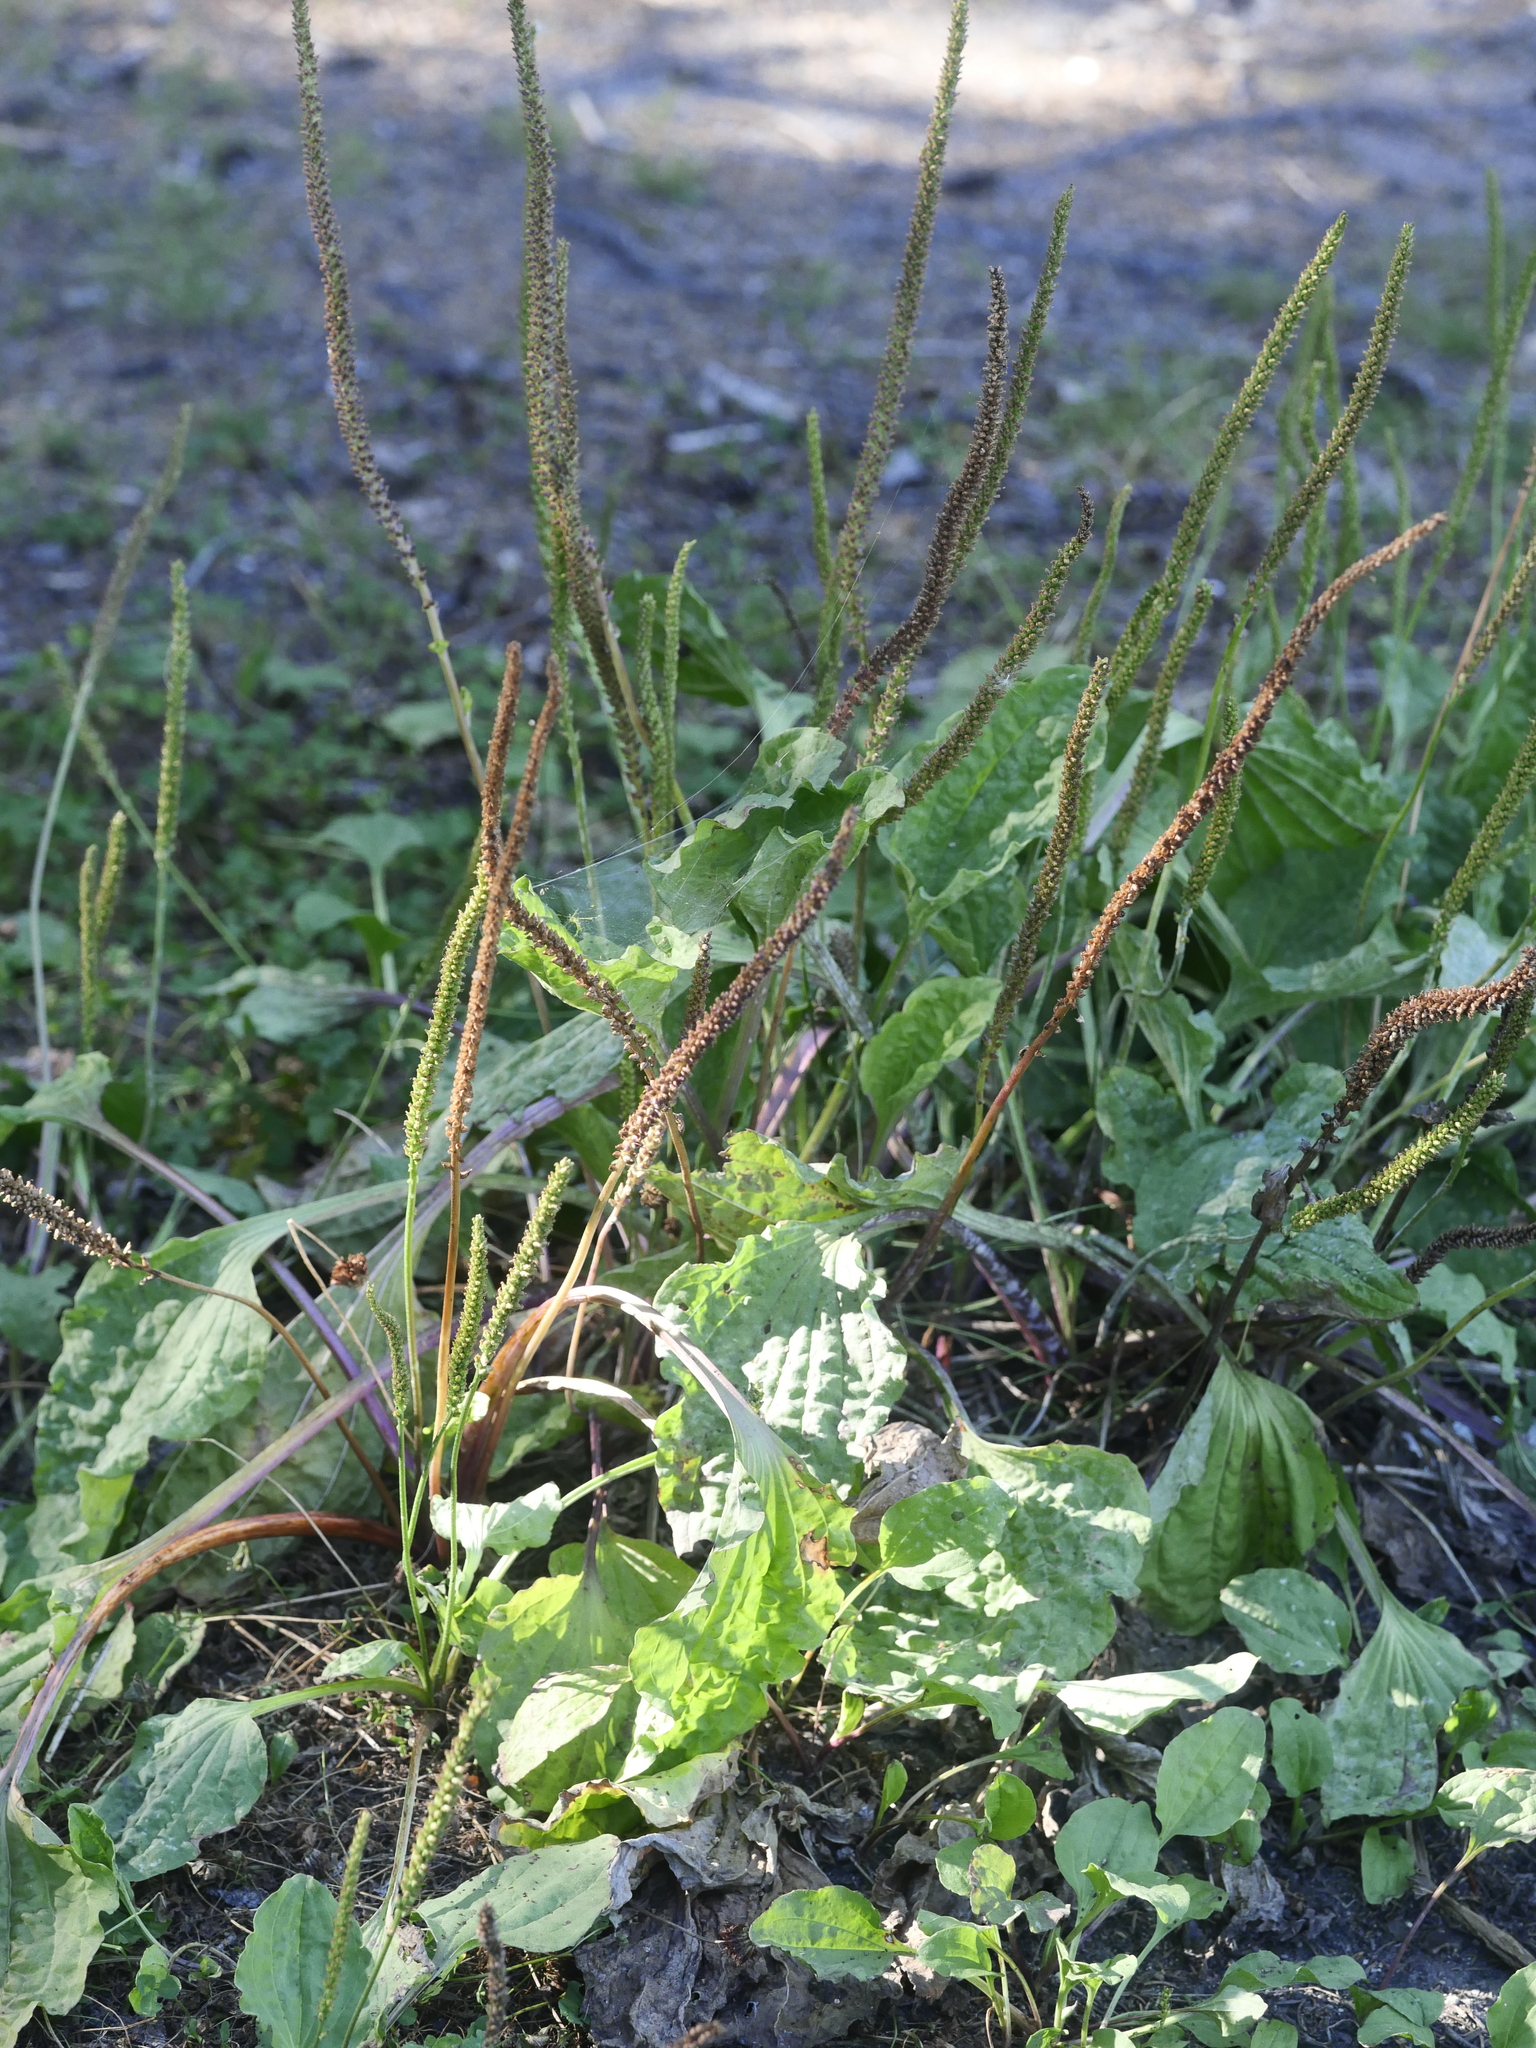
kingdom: Plantae
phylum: Tracheophyta
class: Magnoliopsida
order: Lamiales
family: Plantaginaceae
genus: Plantago
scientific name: Plantago major
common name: Common plantain
